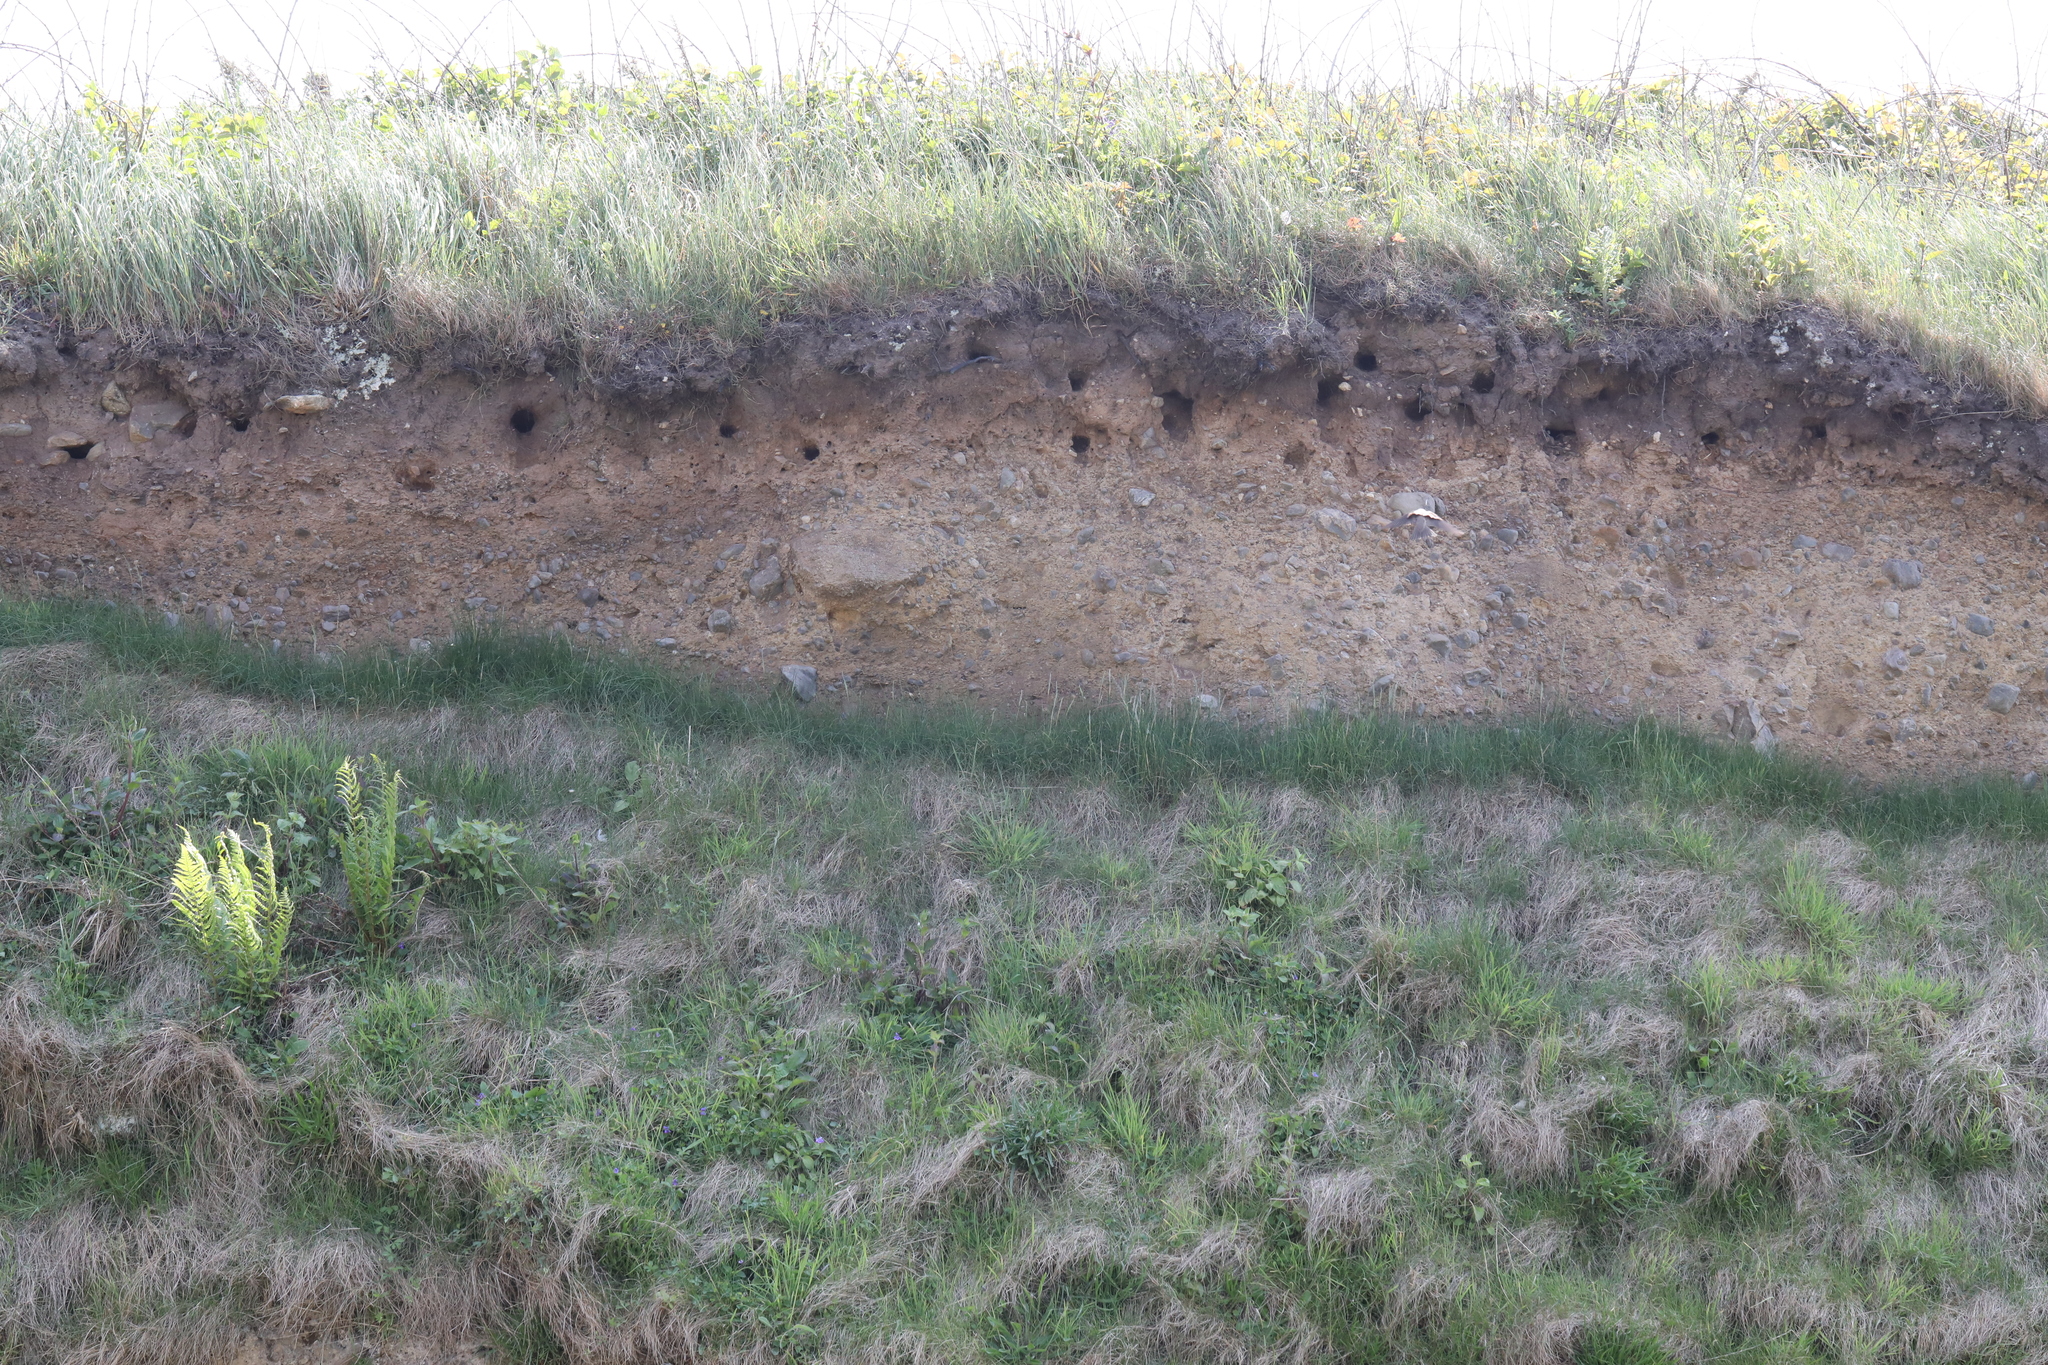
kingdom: Animalia
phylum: Chordata
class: Aves
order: Passeriformes
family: Hirundinidae
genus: Riparia
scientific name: Riparia riparia
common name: Sand martin
